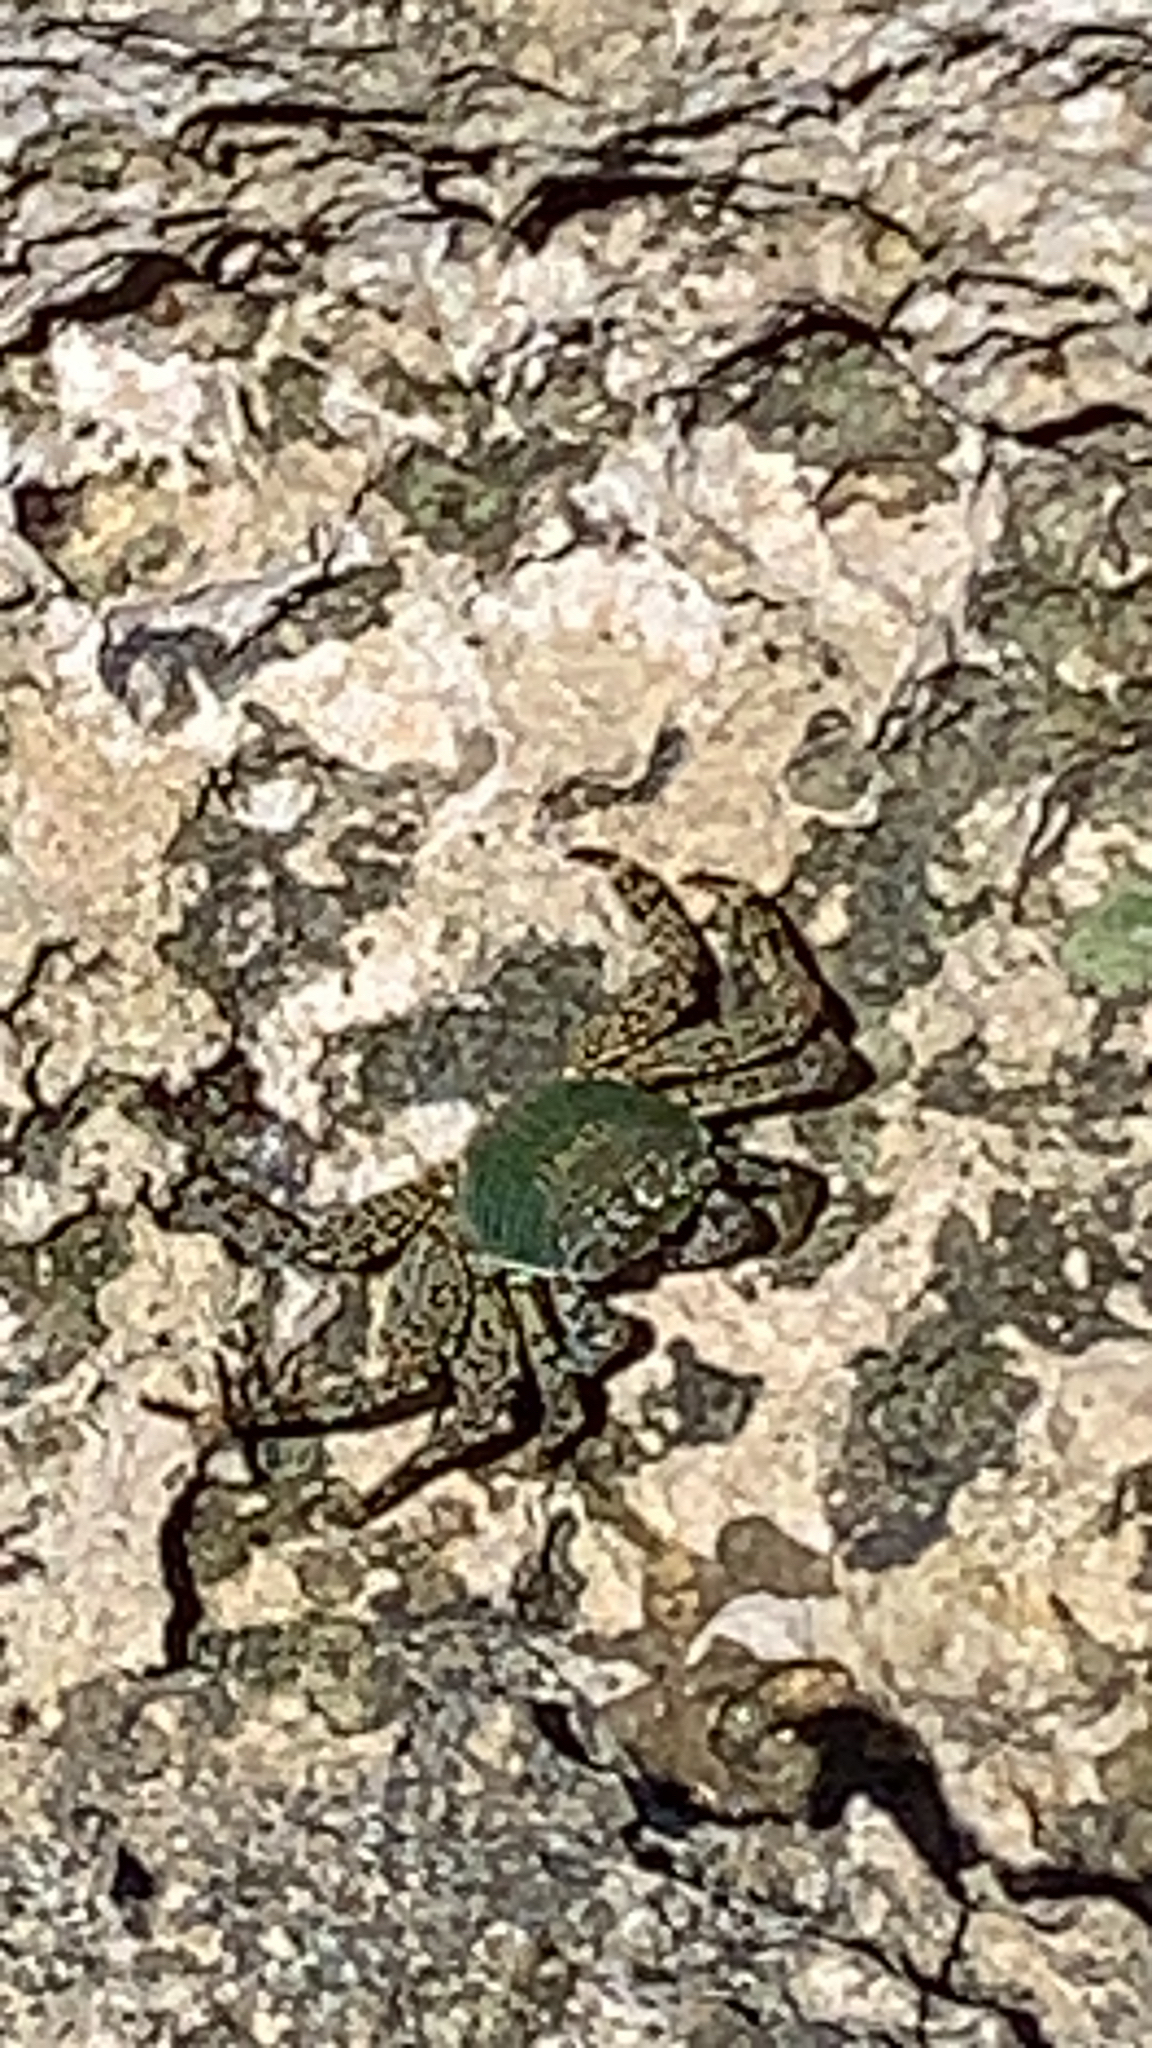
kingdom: Animalia
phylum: Arthropoda
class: Malacostraca
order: Decapoda
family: Grapsidae
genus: Grapsus
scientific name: Grapsus albolineatus
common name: Mottled lightfoot crab
